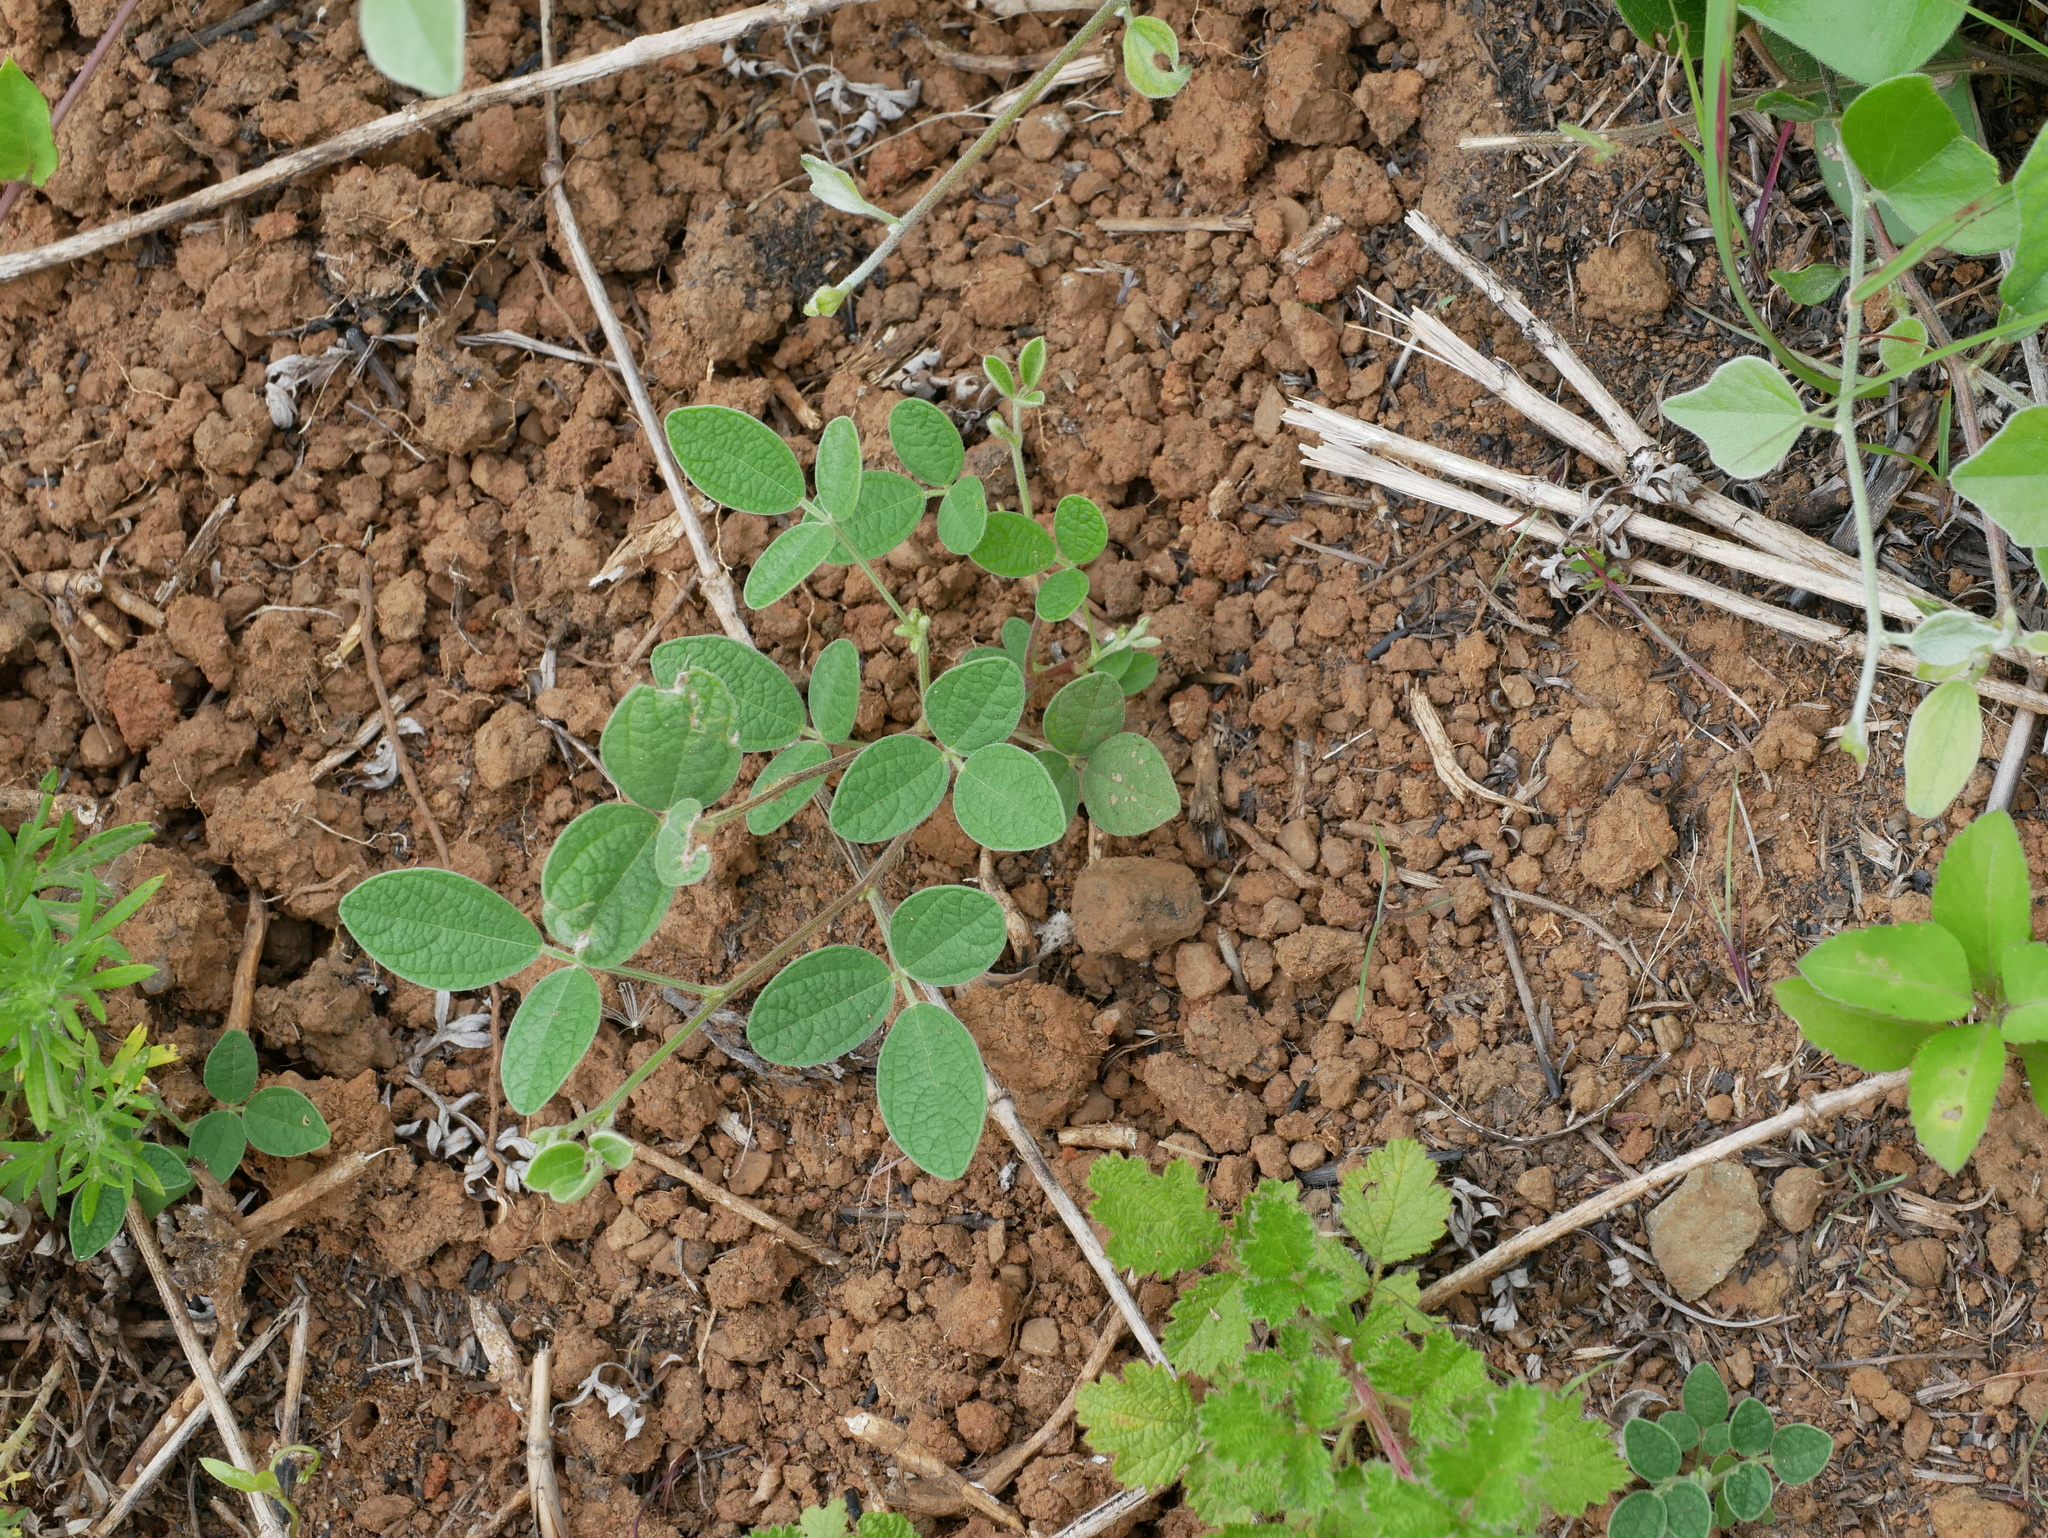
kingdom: Plantae
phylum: Tracheophyta
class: Magnoliopsida
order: Fabales
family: Fabaceae
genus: Cajanus
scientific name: Cajanus scarabaeoides
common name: Showy pigeonpea
